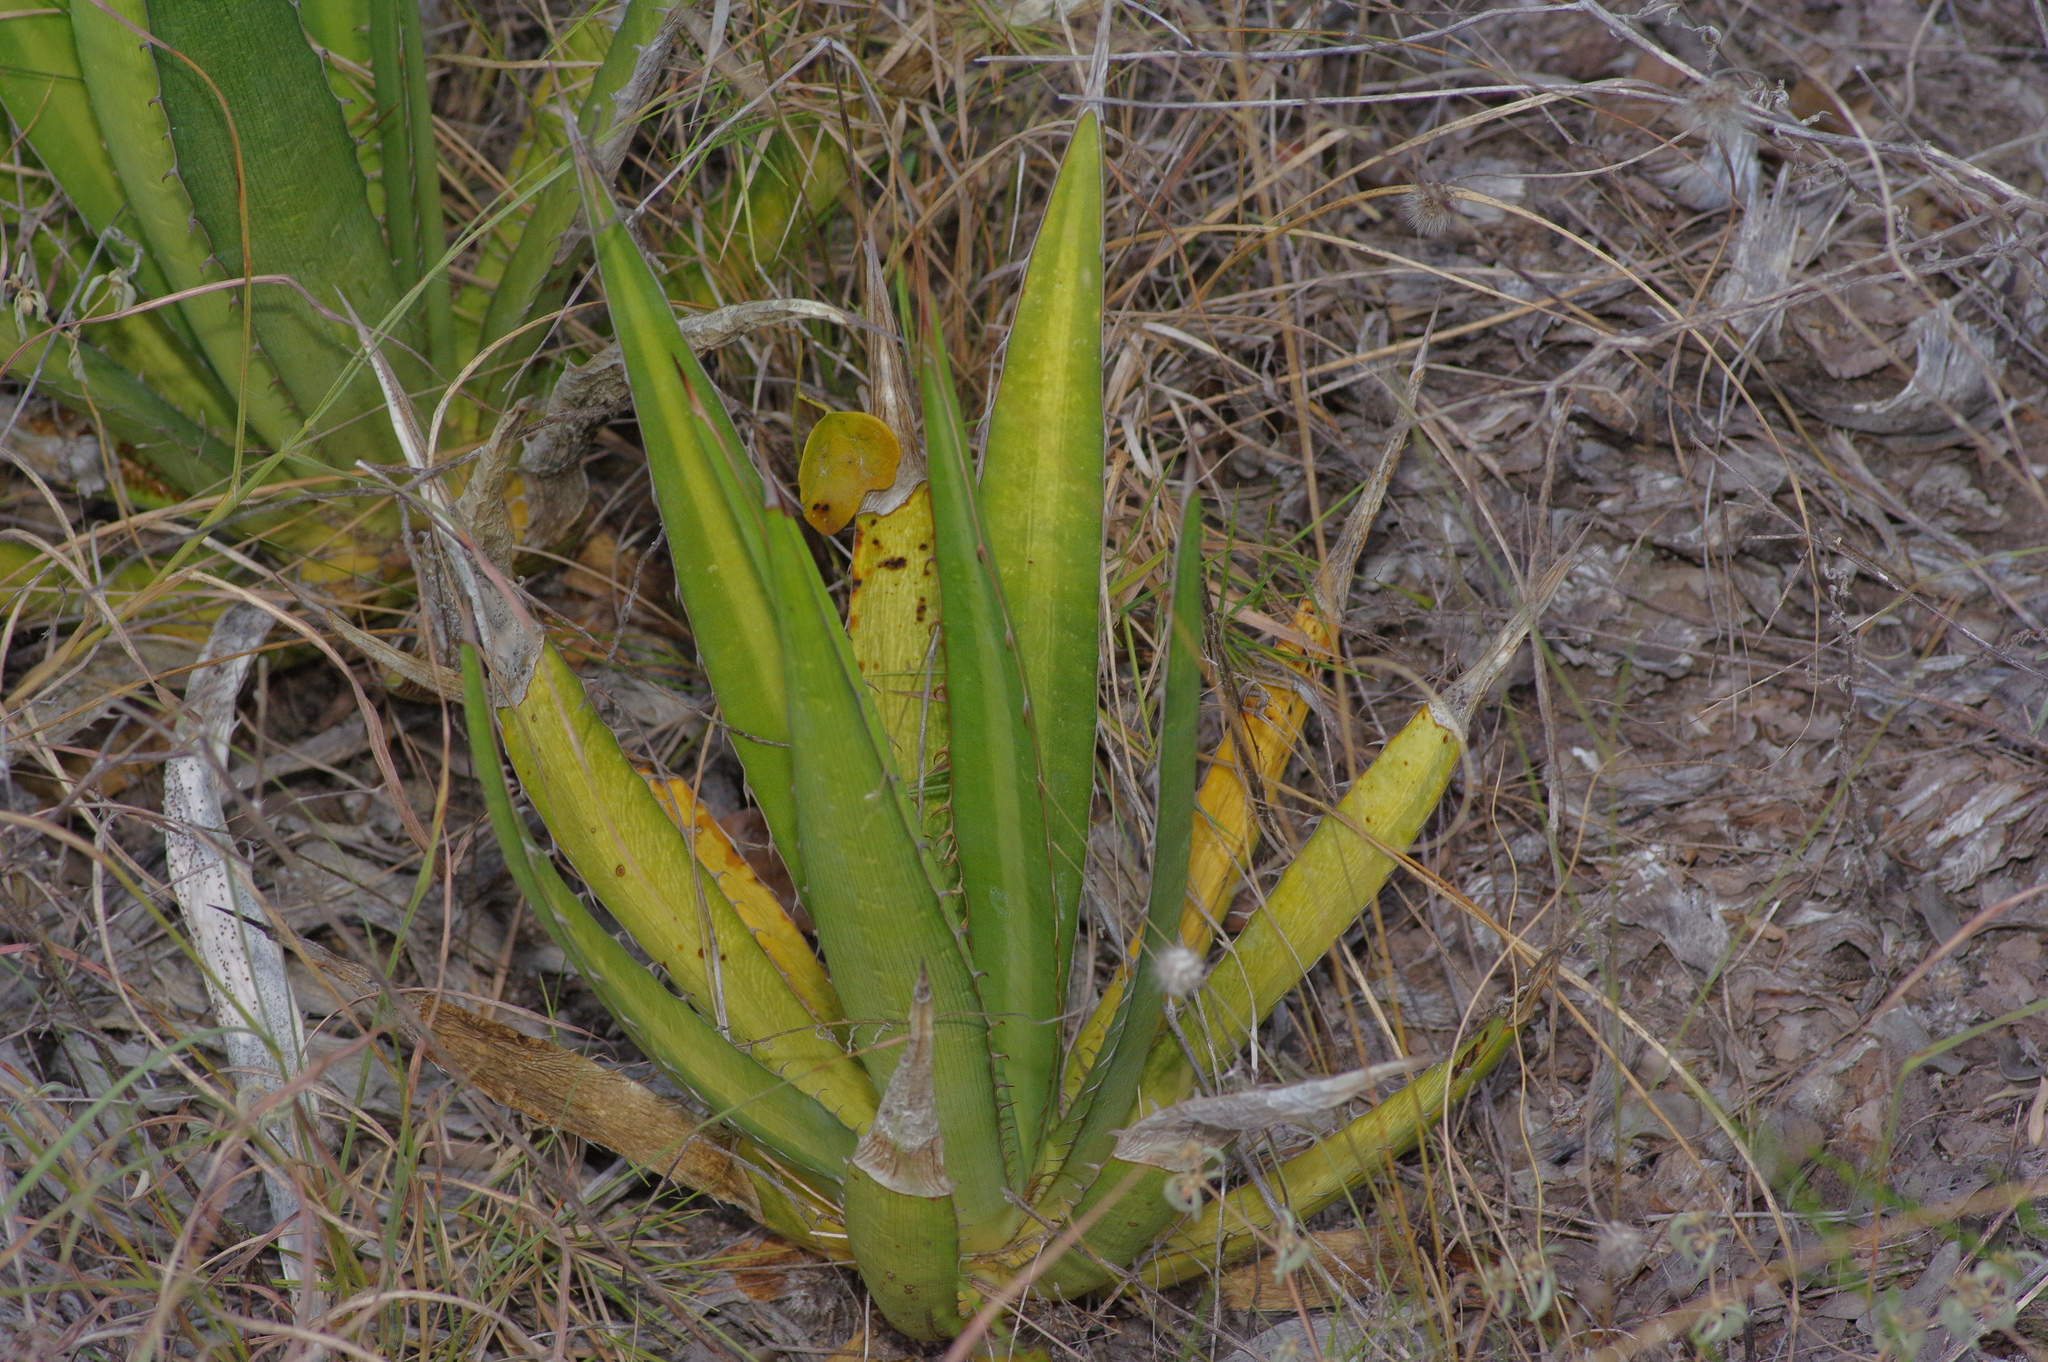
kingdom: Plantae
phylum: Tracheophyta
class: Liliopsida
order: Asparagales
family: Asparagaceae
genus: Agave
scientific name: Agave univittata
